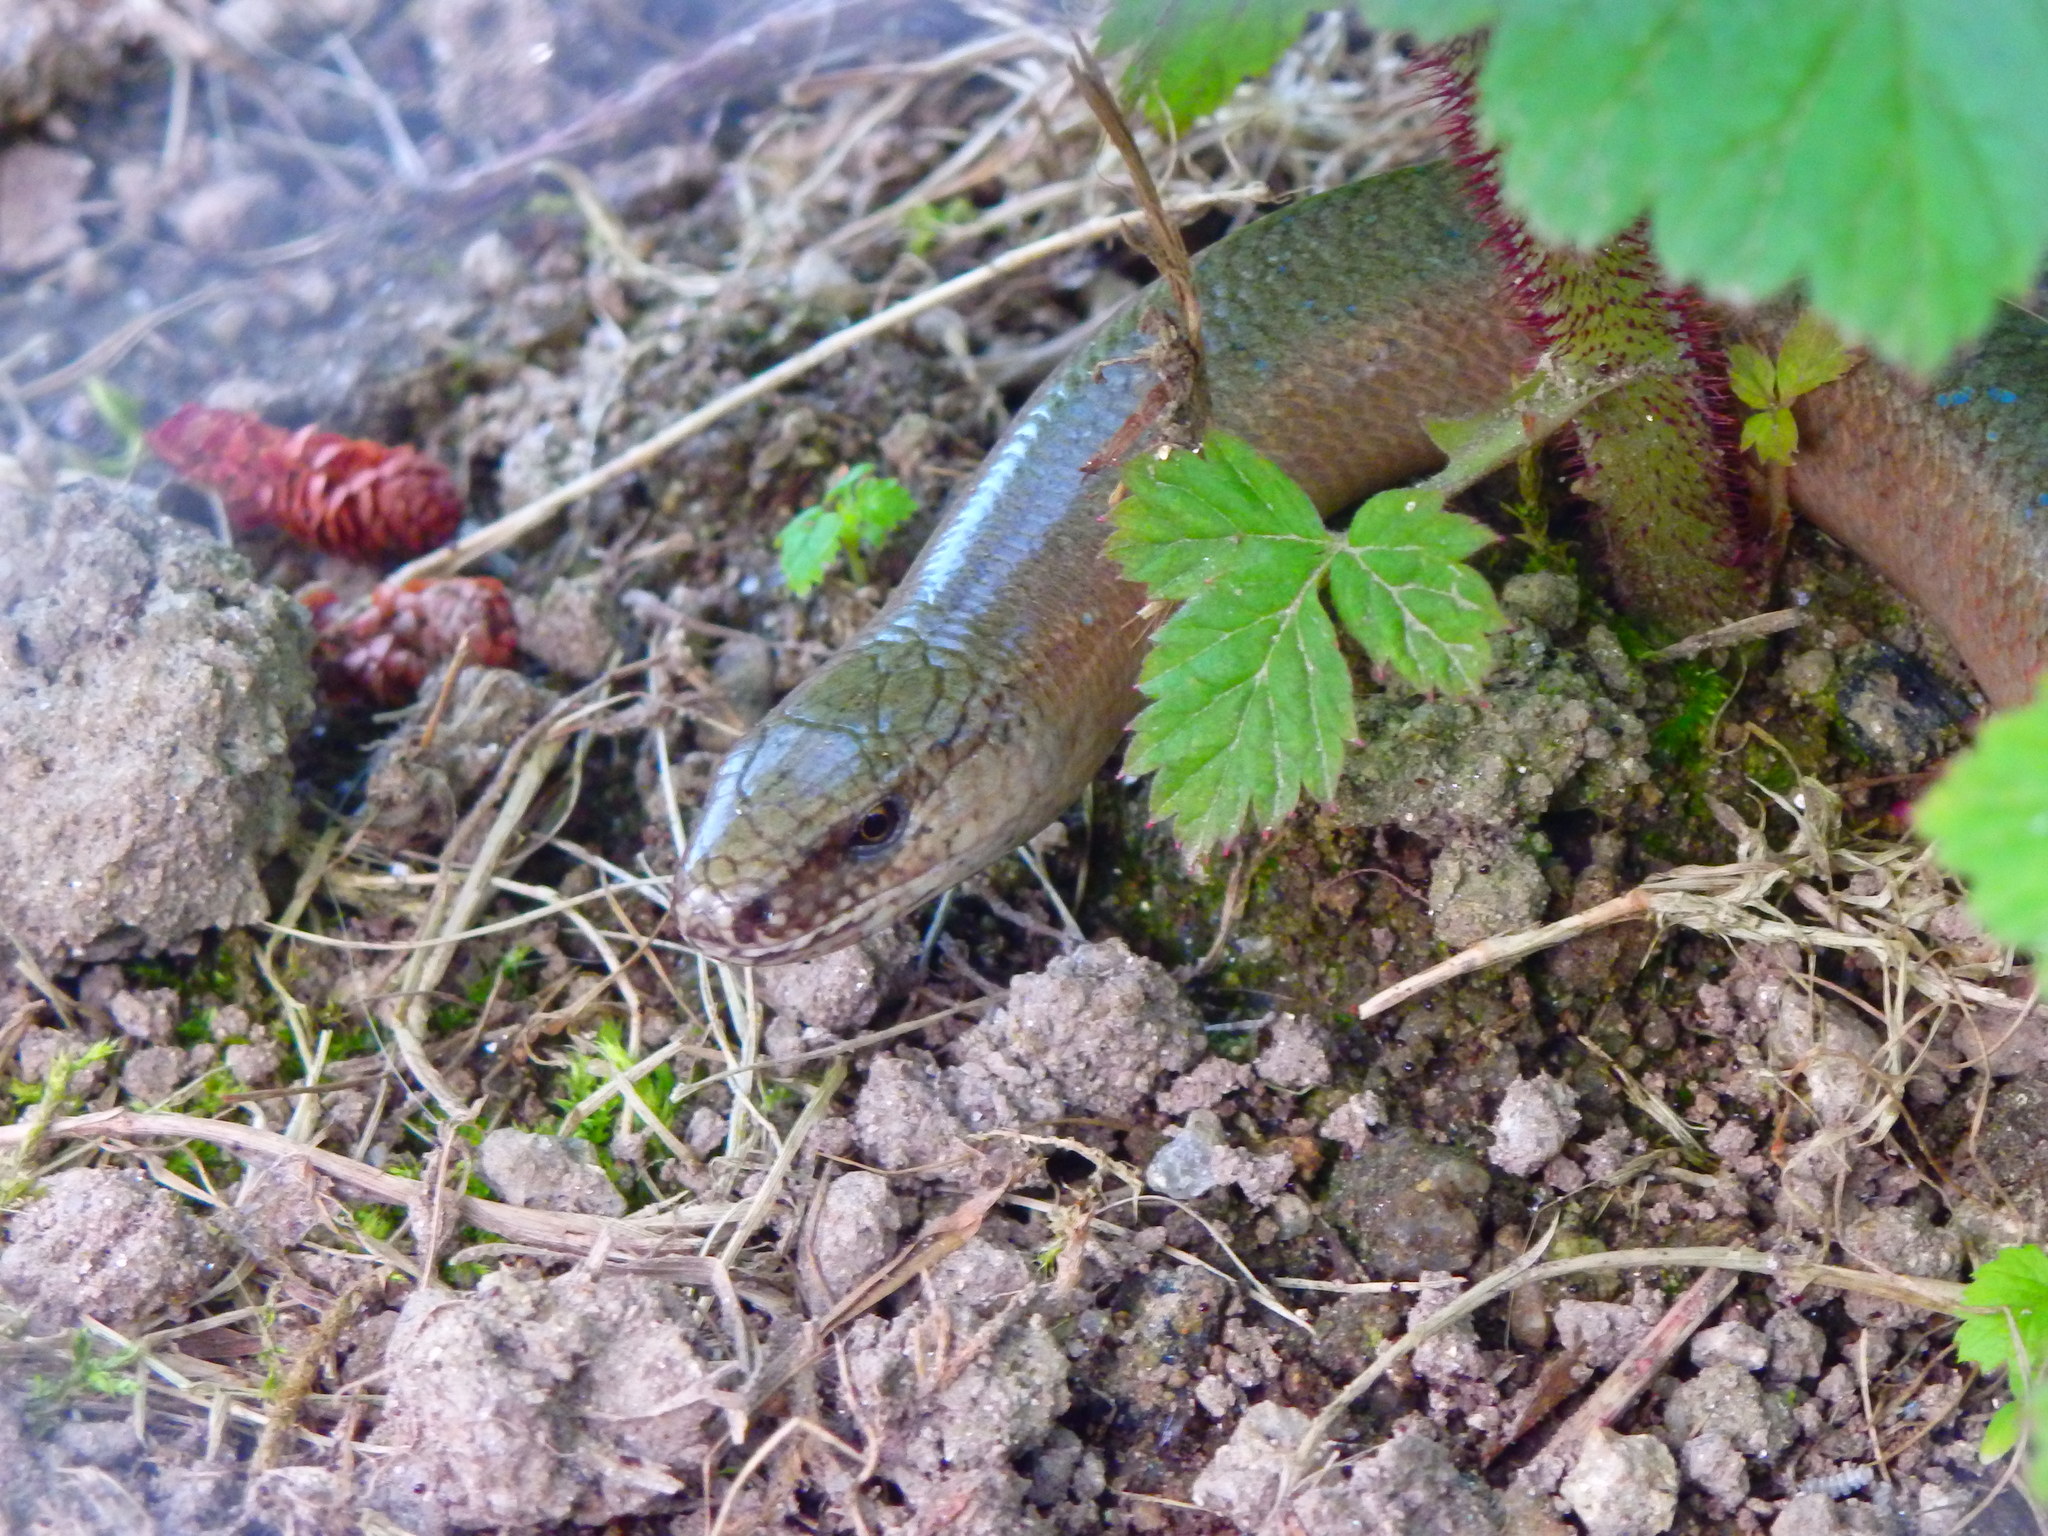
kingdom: Animalia
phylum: Chordata
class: Squamata
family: Anguidae
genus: Anguis
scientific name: Anguis fragilis
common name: Slow worm
